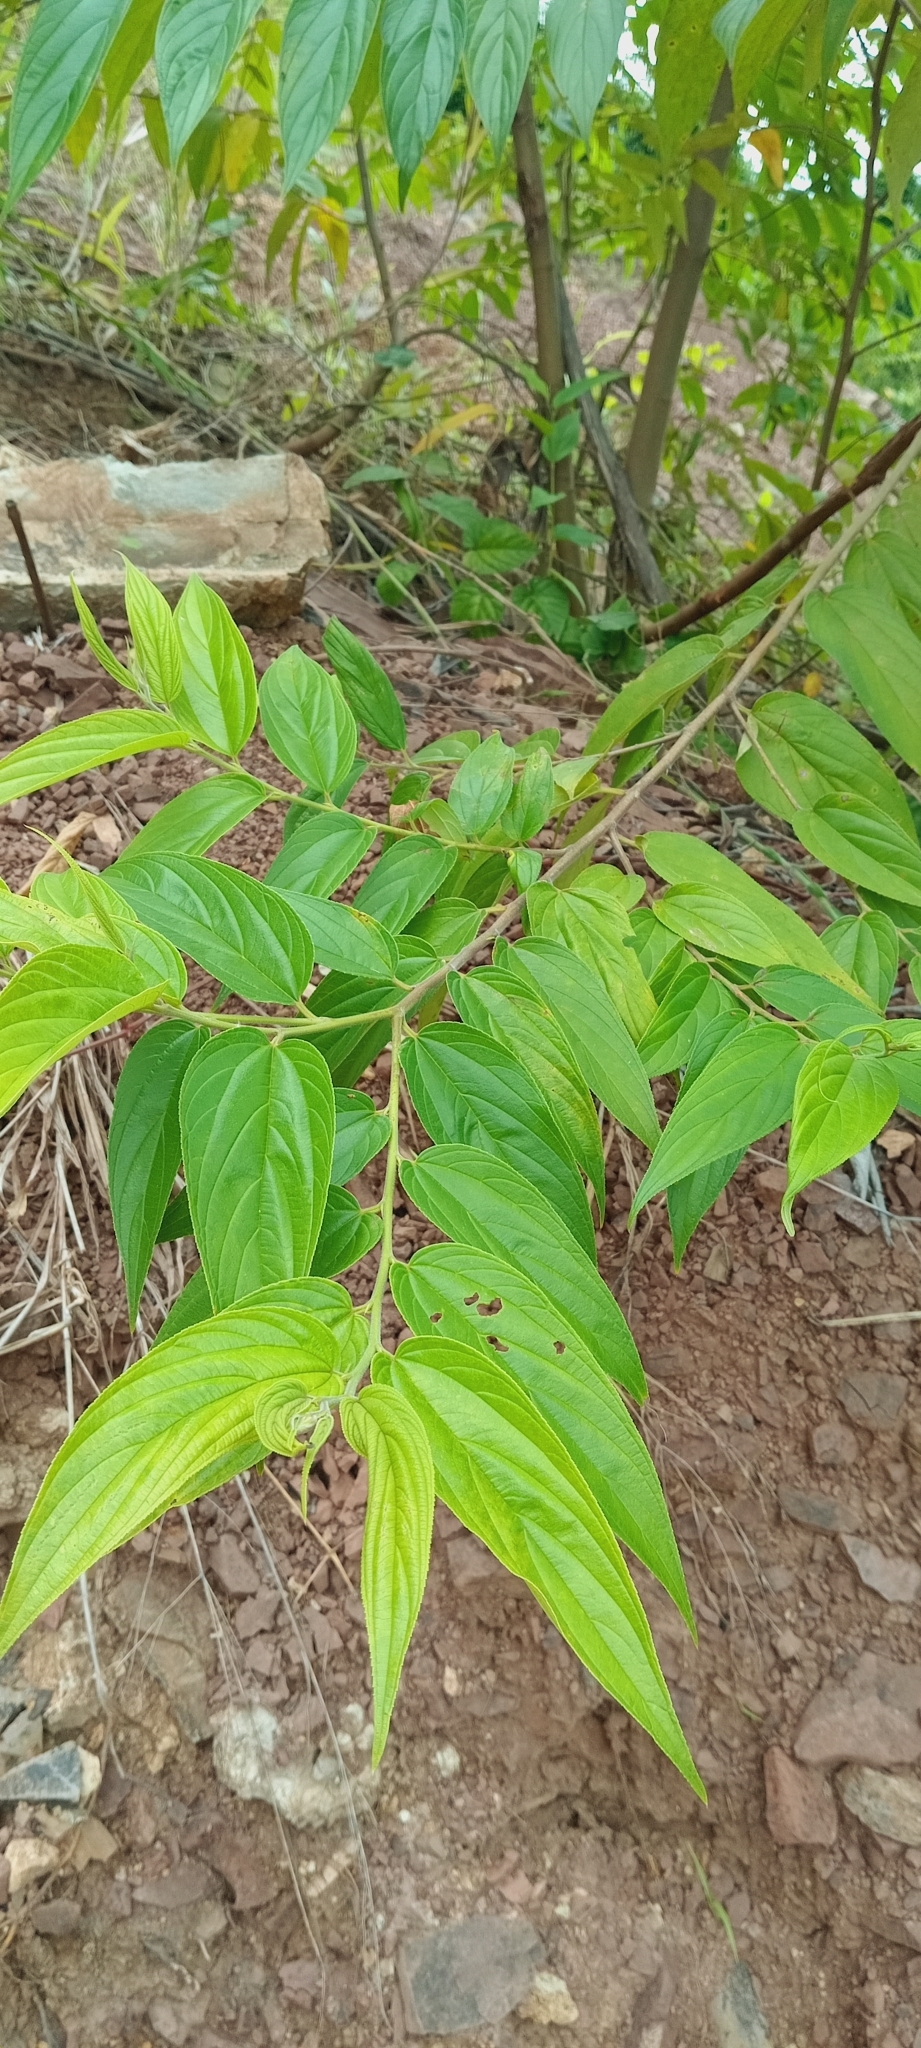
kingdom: Plantae
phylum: Tracheophyta
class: Magnoliopsida
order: Rosales
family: Cannabaceae
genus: Trema
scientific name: Trema micranthum
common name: Jamaican nettletree
